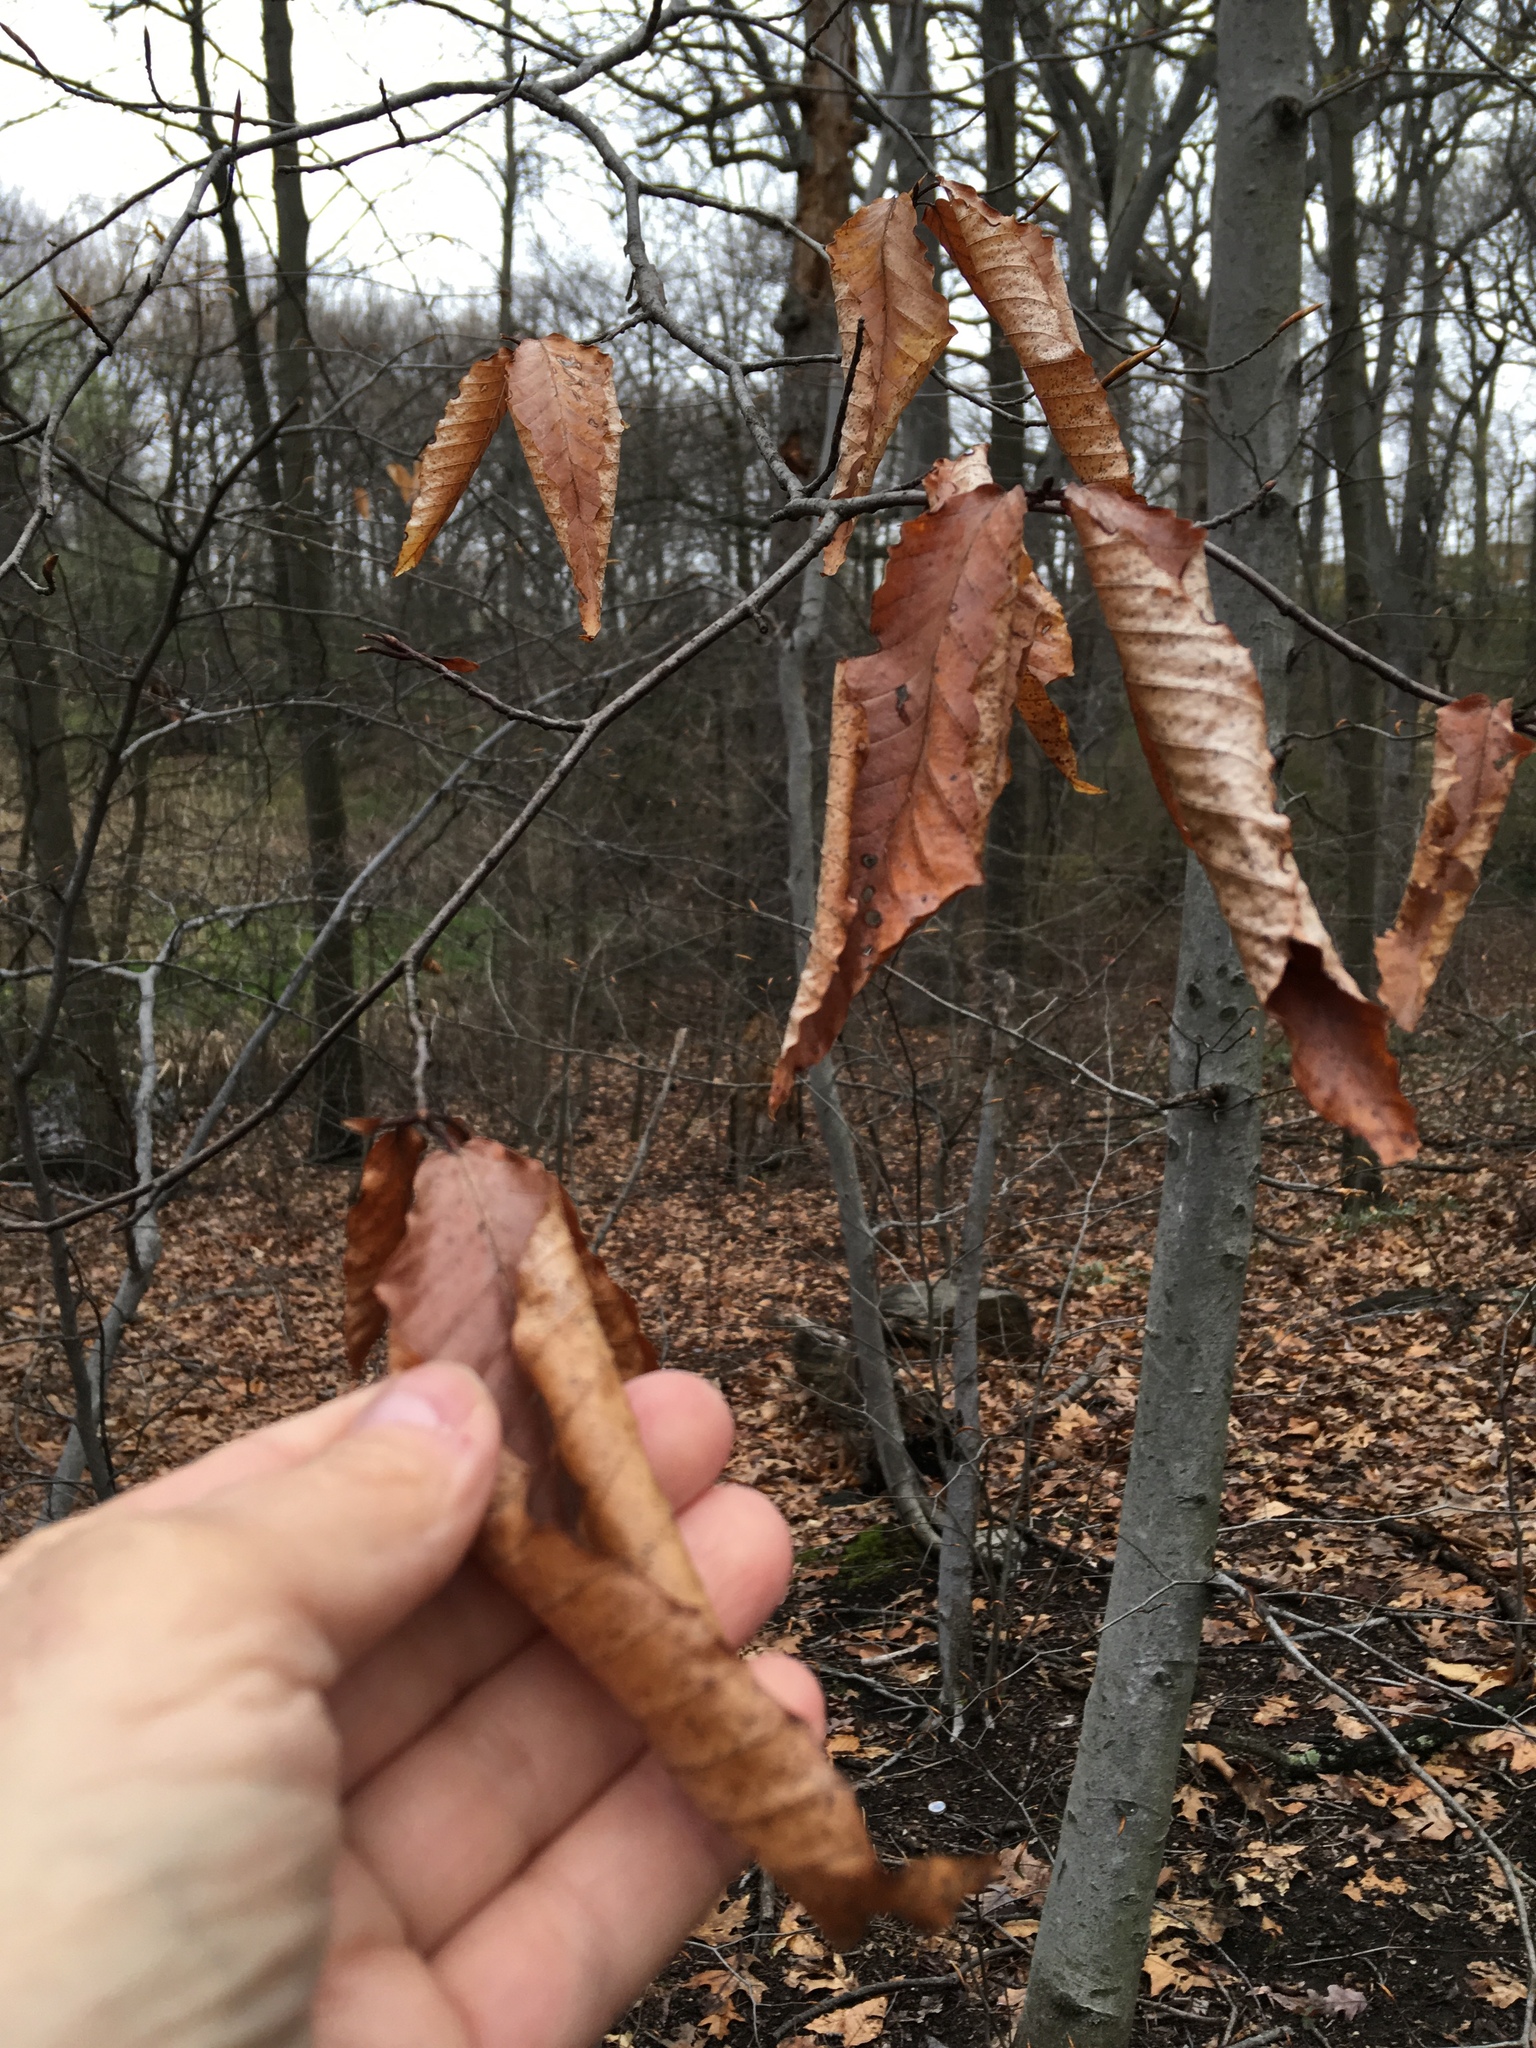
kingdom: Plantae
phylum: Tracheophyta
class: Magnoliopsida
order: Fagales
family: Fagaceae
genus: Fagus
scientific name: Fagus grandifolia
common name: American beech
